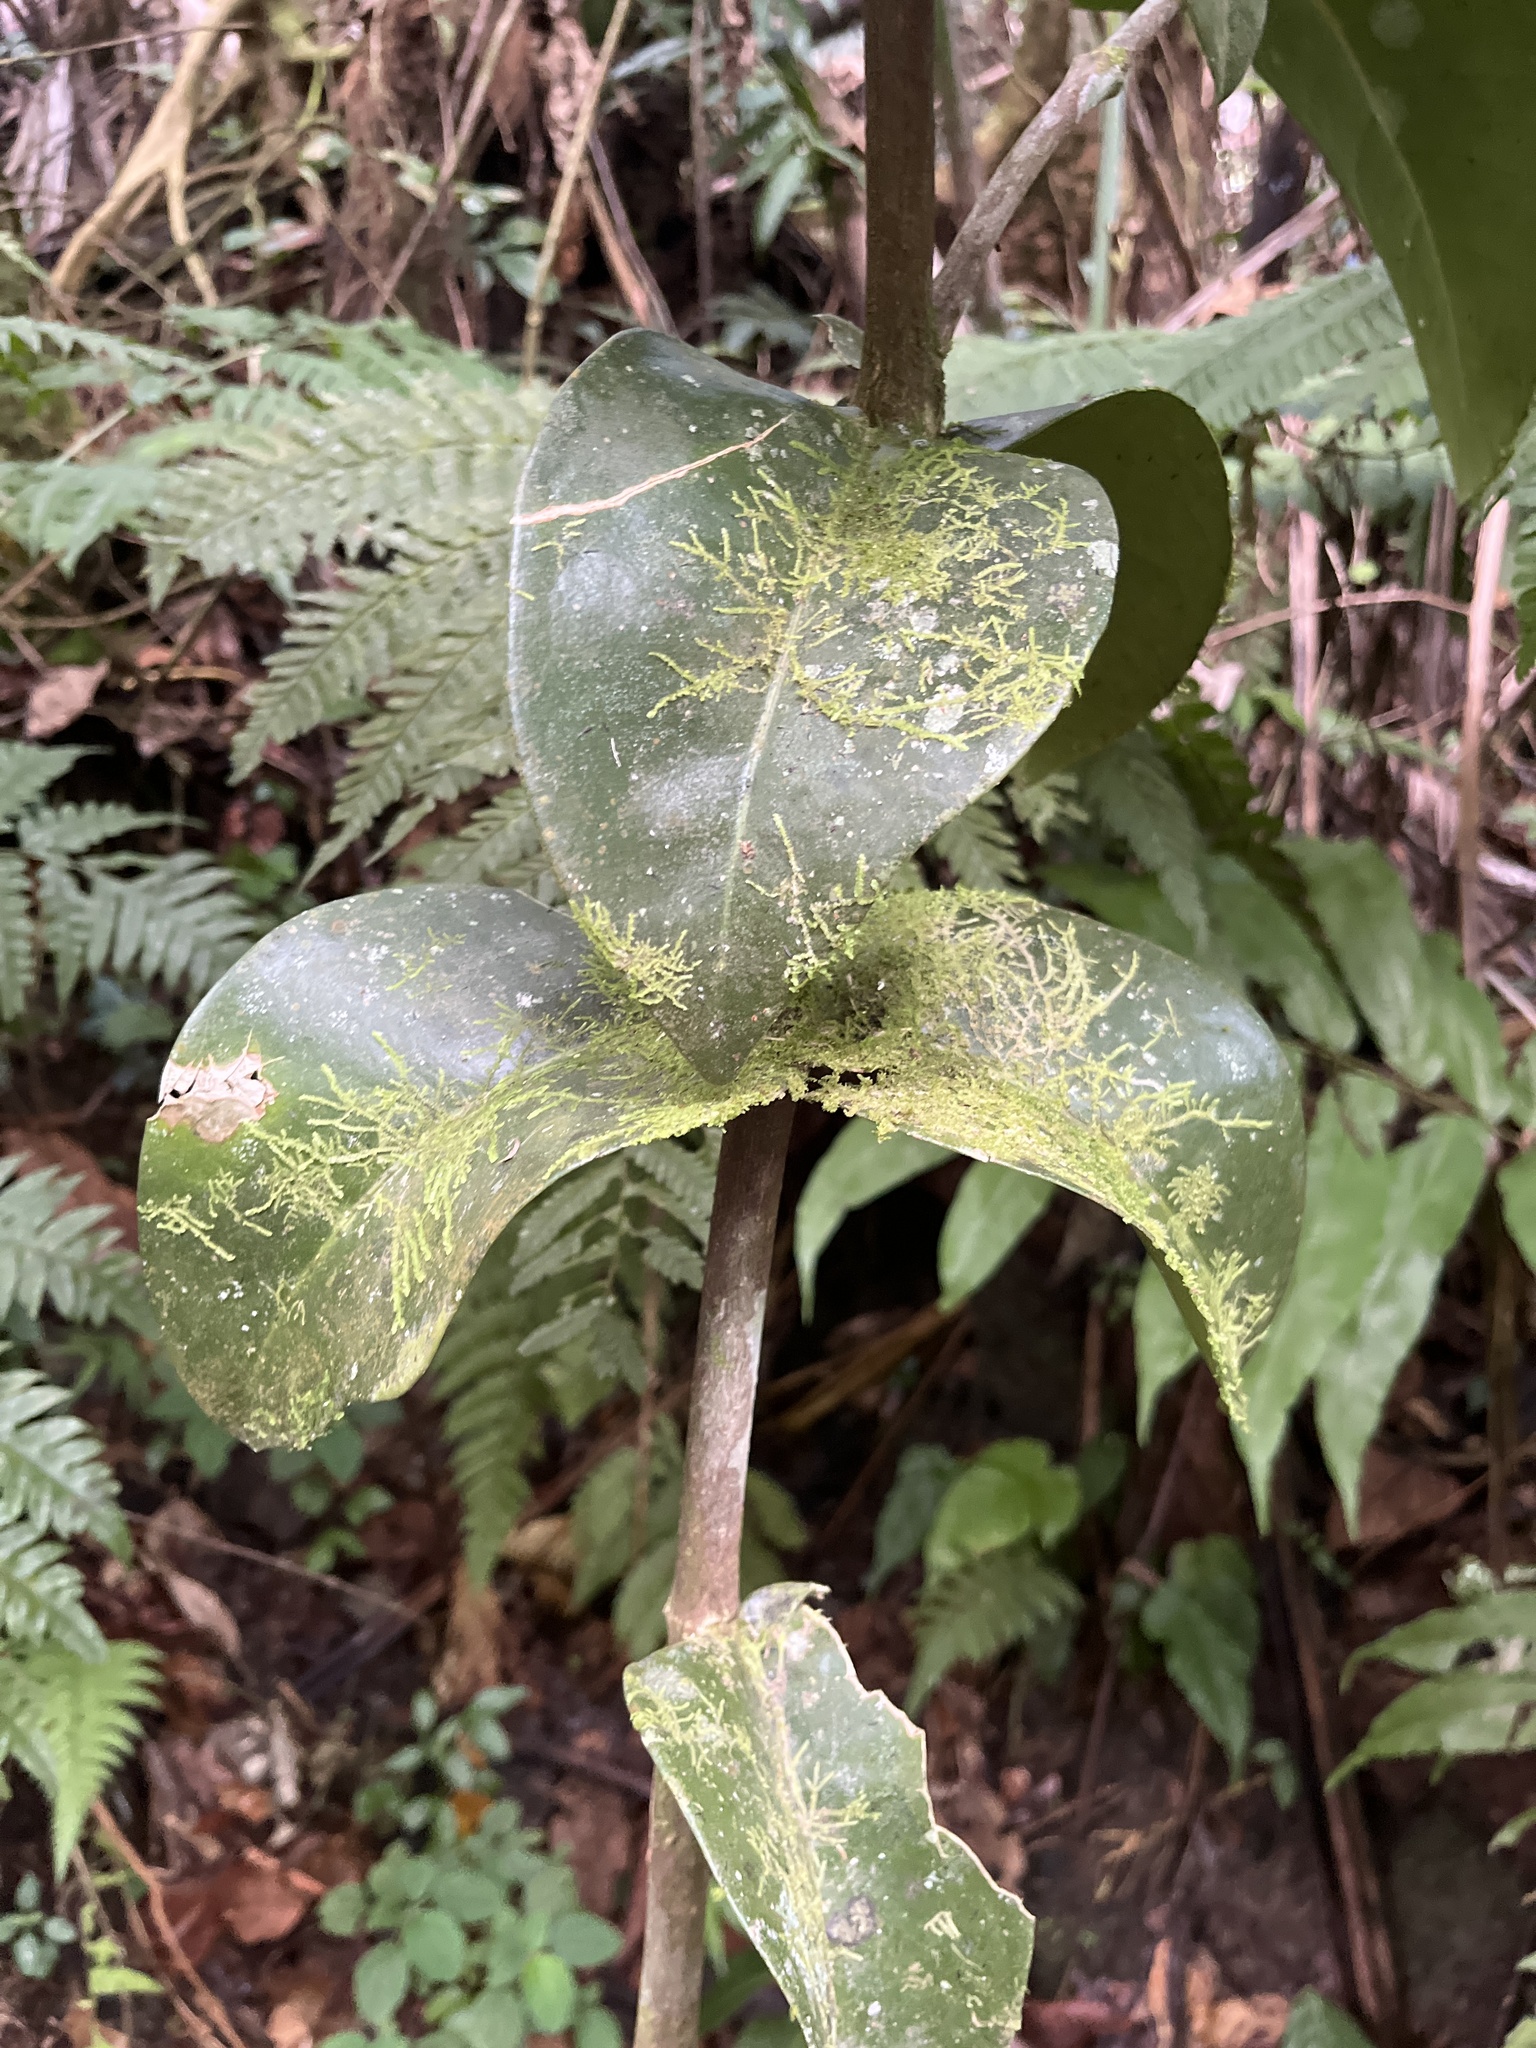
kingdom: Plantae
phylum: Tracheophyta
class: Magnoliopsida
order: Sapindales
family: Rutaceae
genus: Ravenia
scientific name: Ravenia urbani
